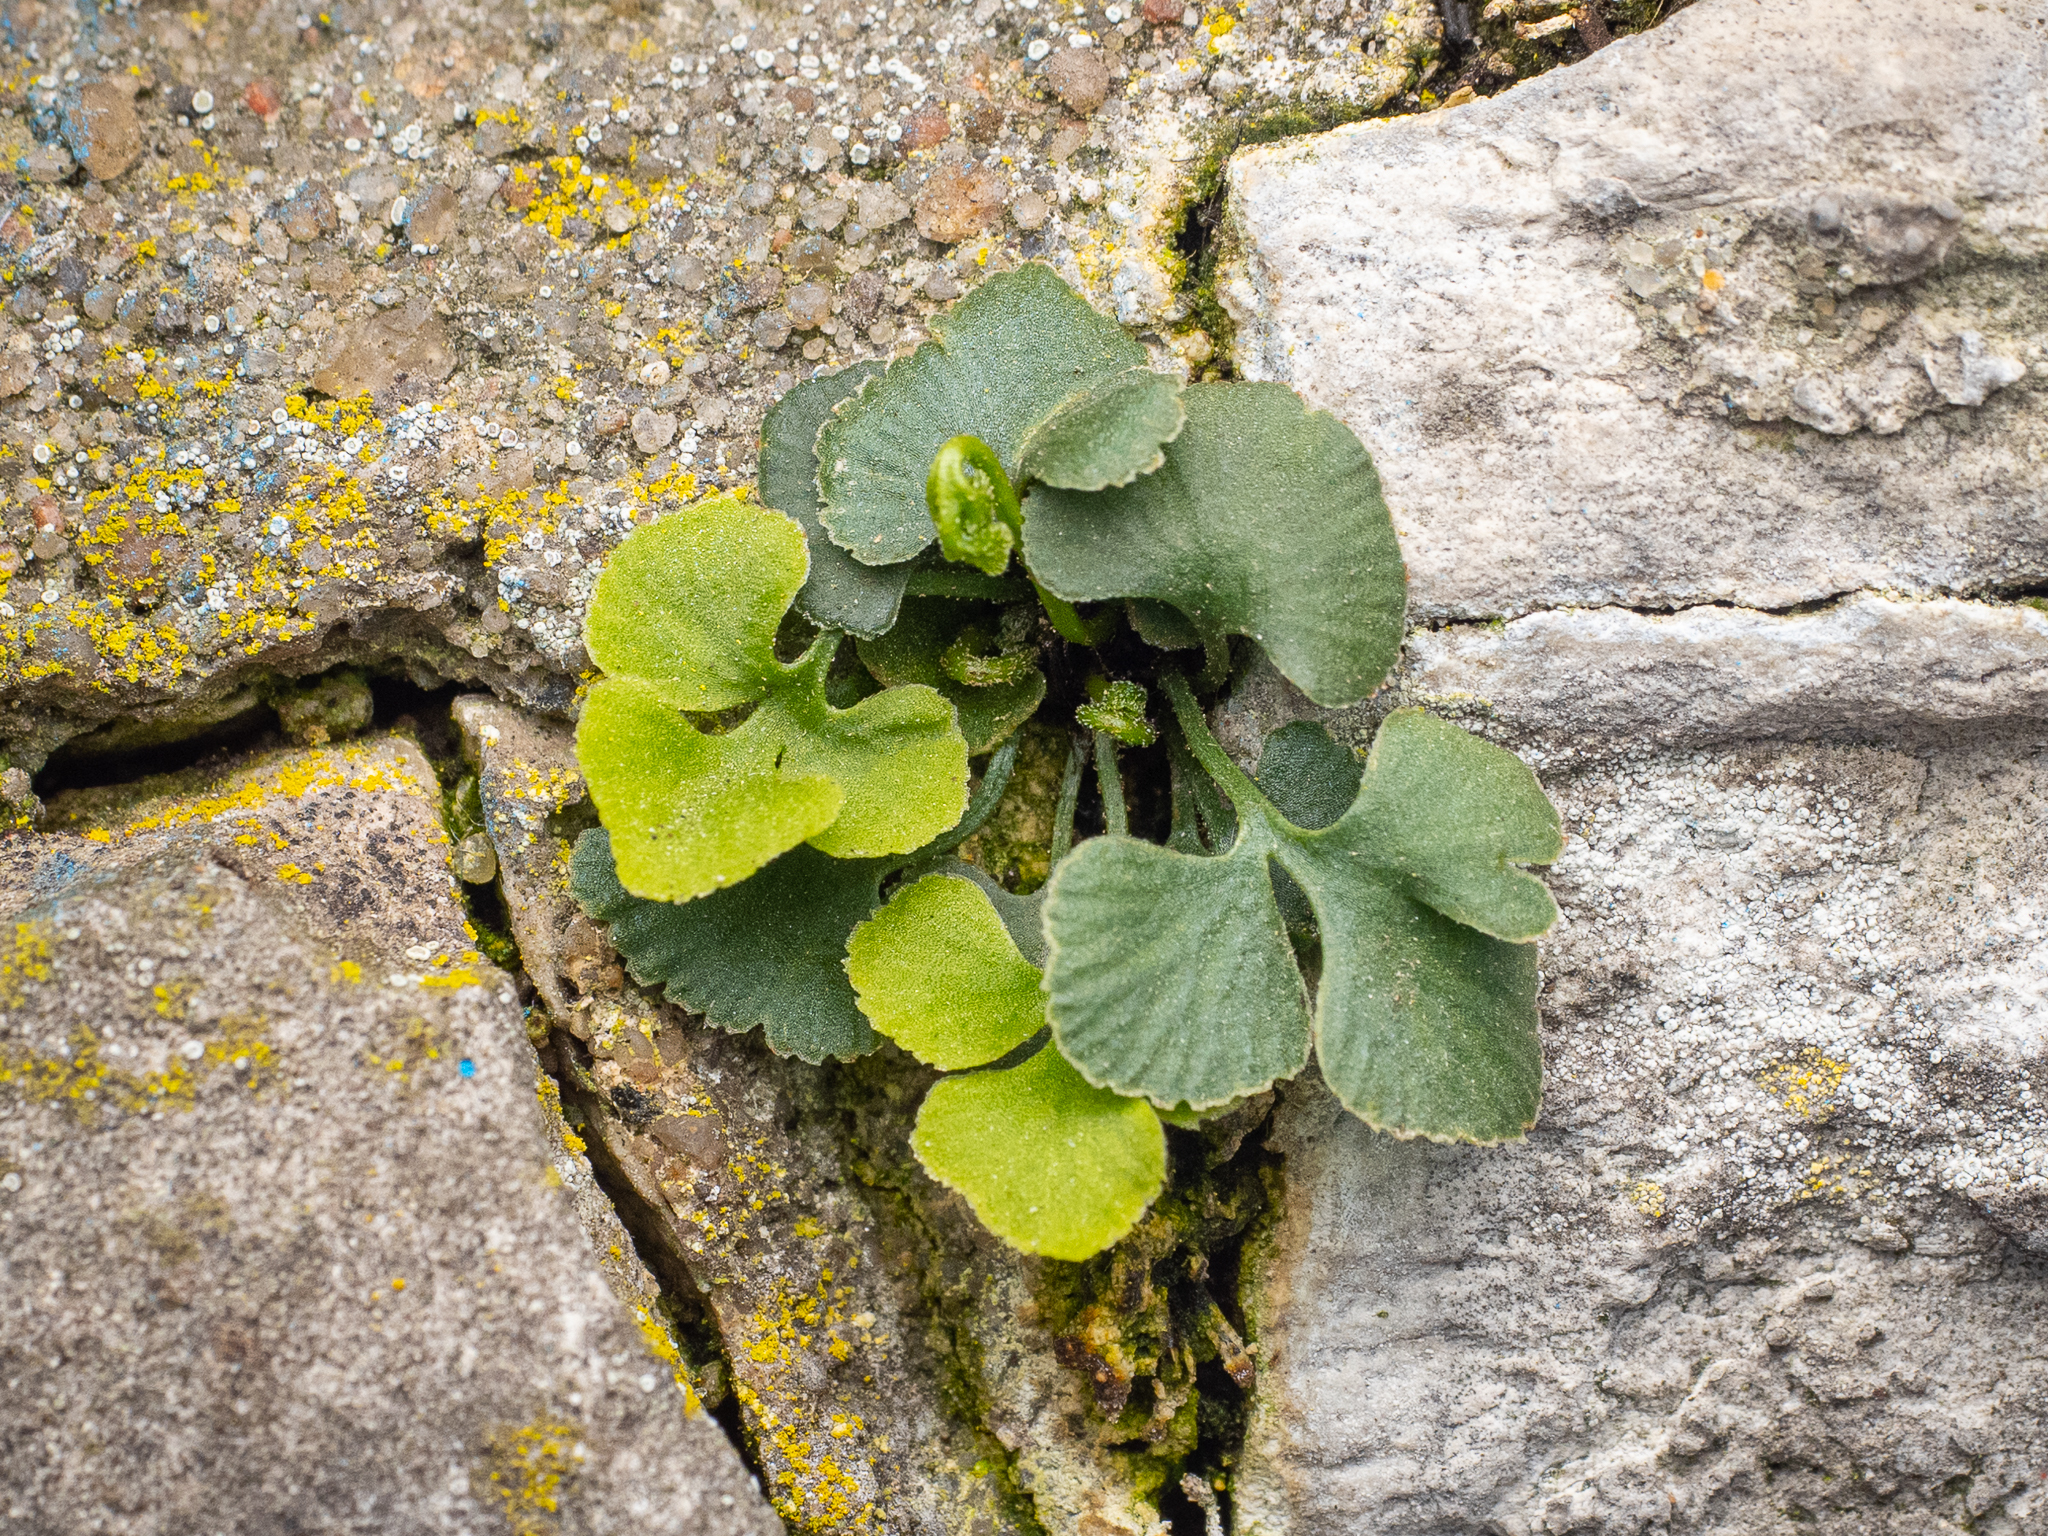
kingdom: Plantae
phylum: Tracheophyta
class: Polypodiopsida
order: Polypodiales
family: Aspleniaceae
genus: Asplenium
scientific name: Asplenium ruta-muraria
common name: Wall-rue
